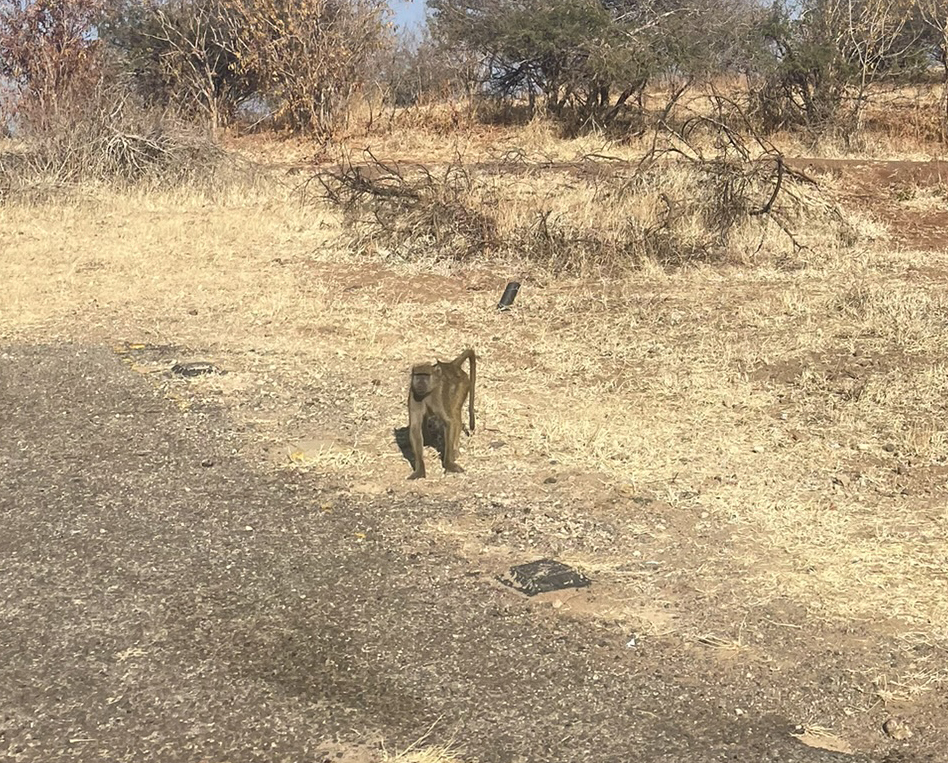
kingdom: Animalia
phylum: Chordata
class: Mammalia
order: Primates
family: Cercopithecidae
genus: Papio
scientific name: Papio ursinus
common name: Chacma baboon
